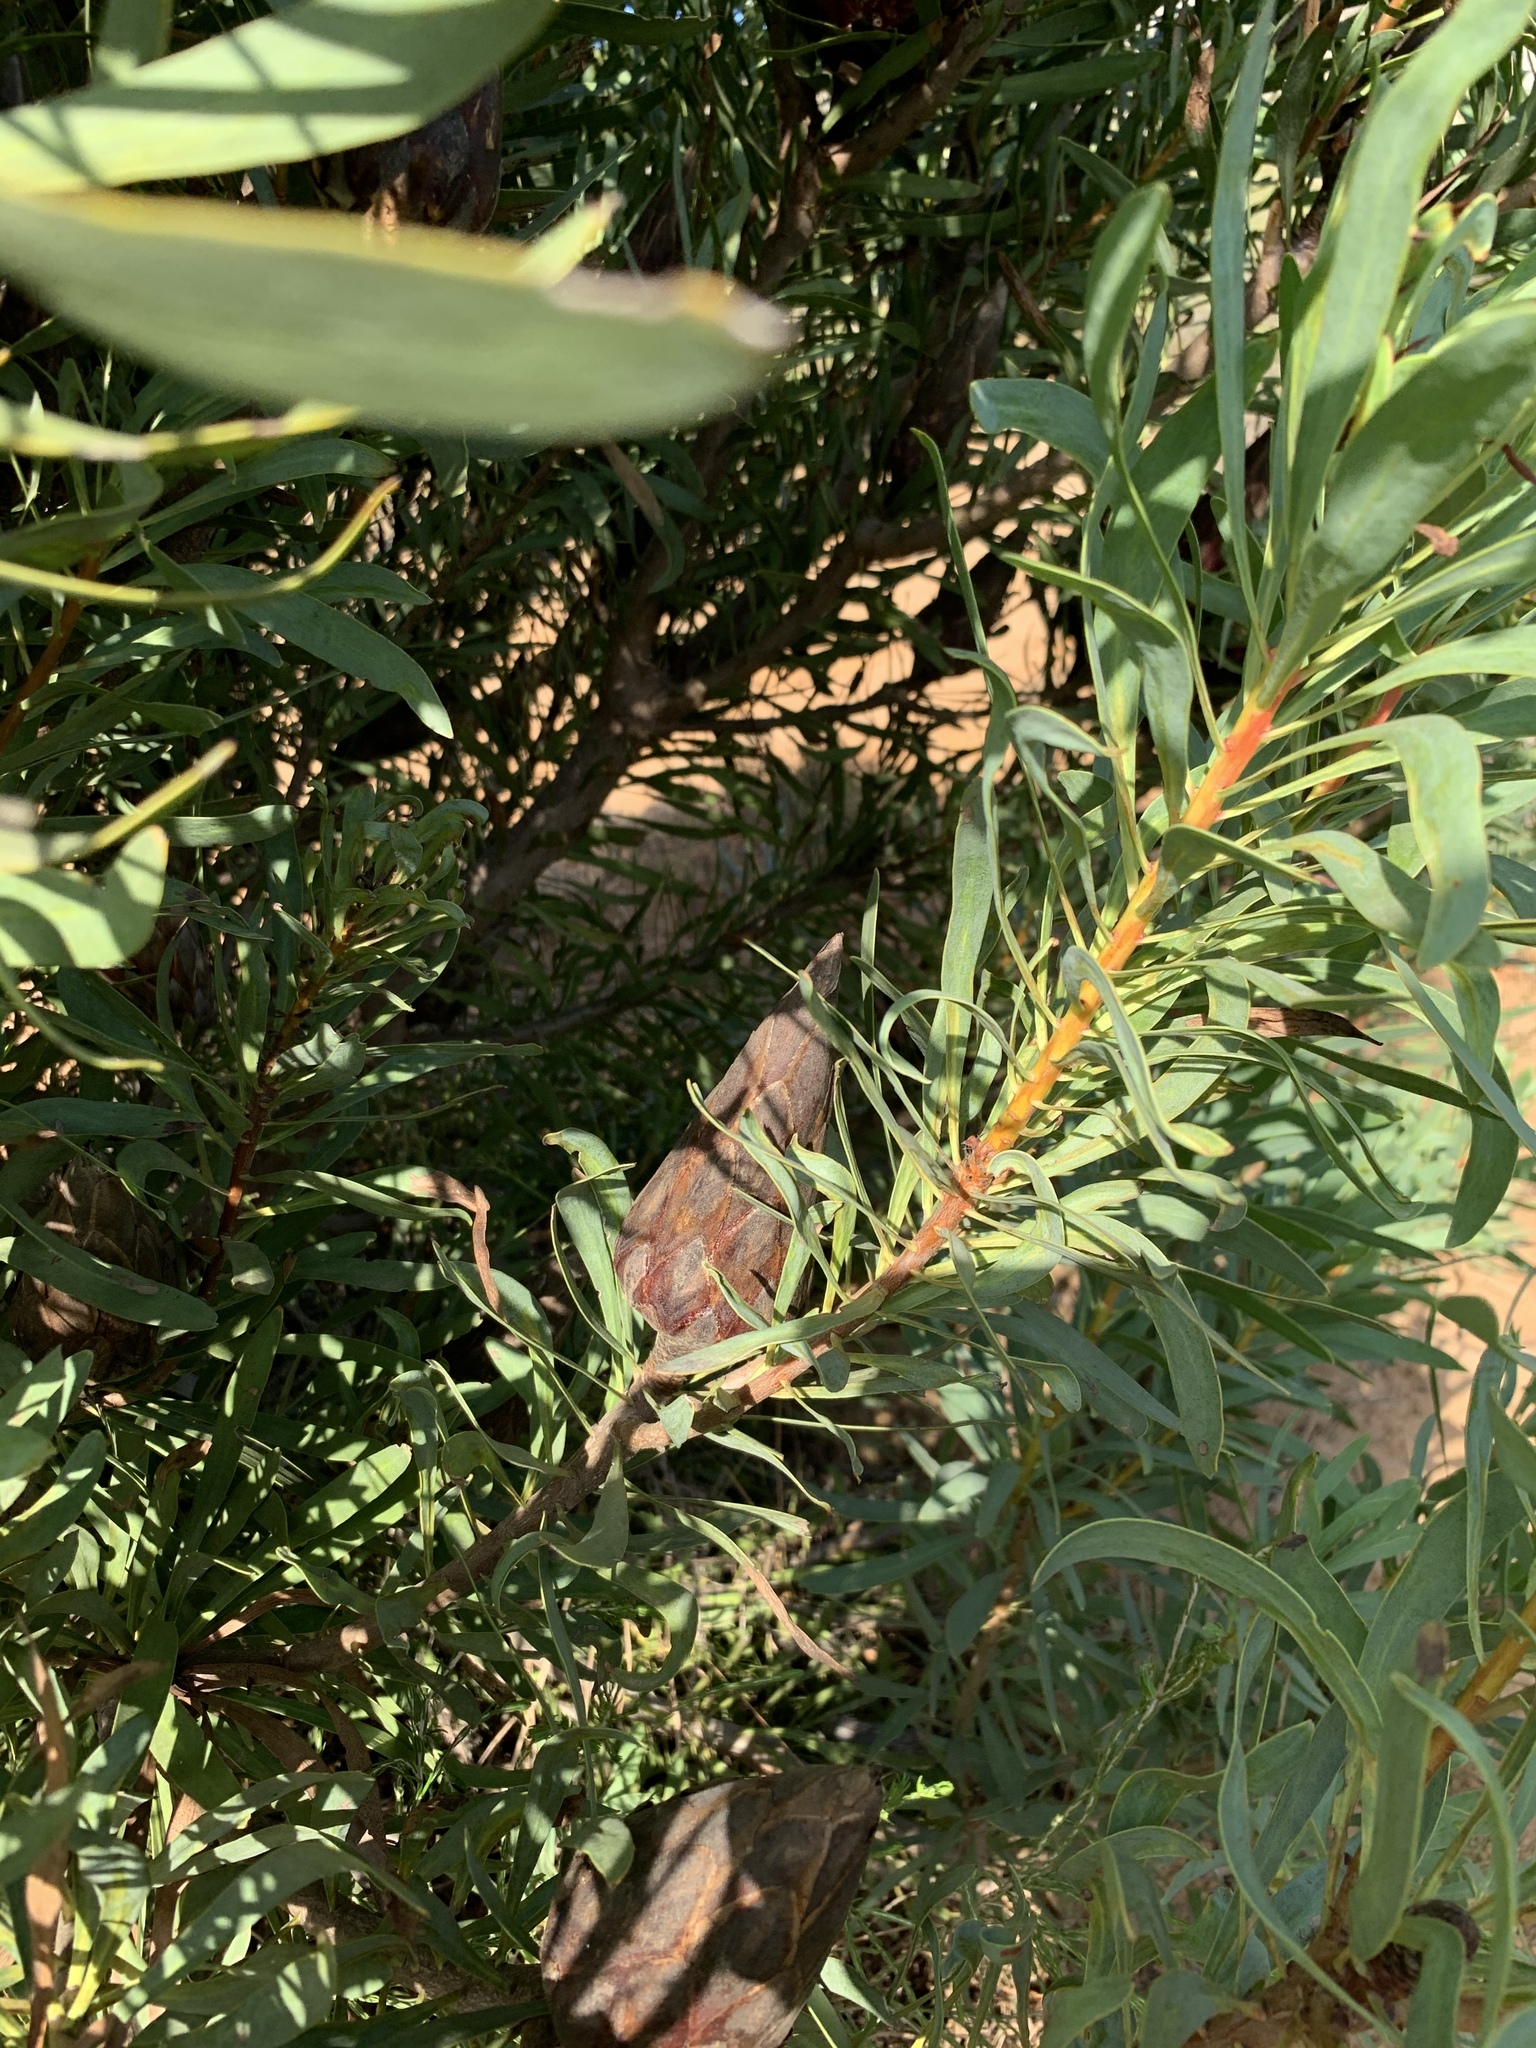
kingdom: Plantae
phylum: Tracheophyta
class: Magnoliopsida
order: Proteales
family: Proteaceae
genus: Protea
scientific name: Protea repens
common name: Sugarbush
